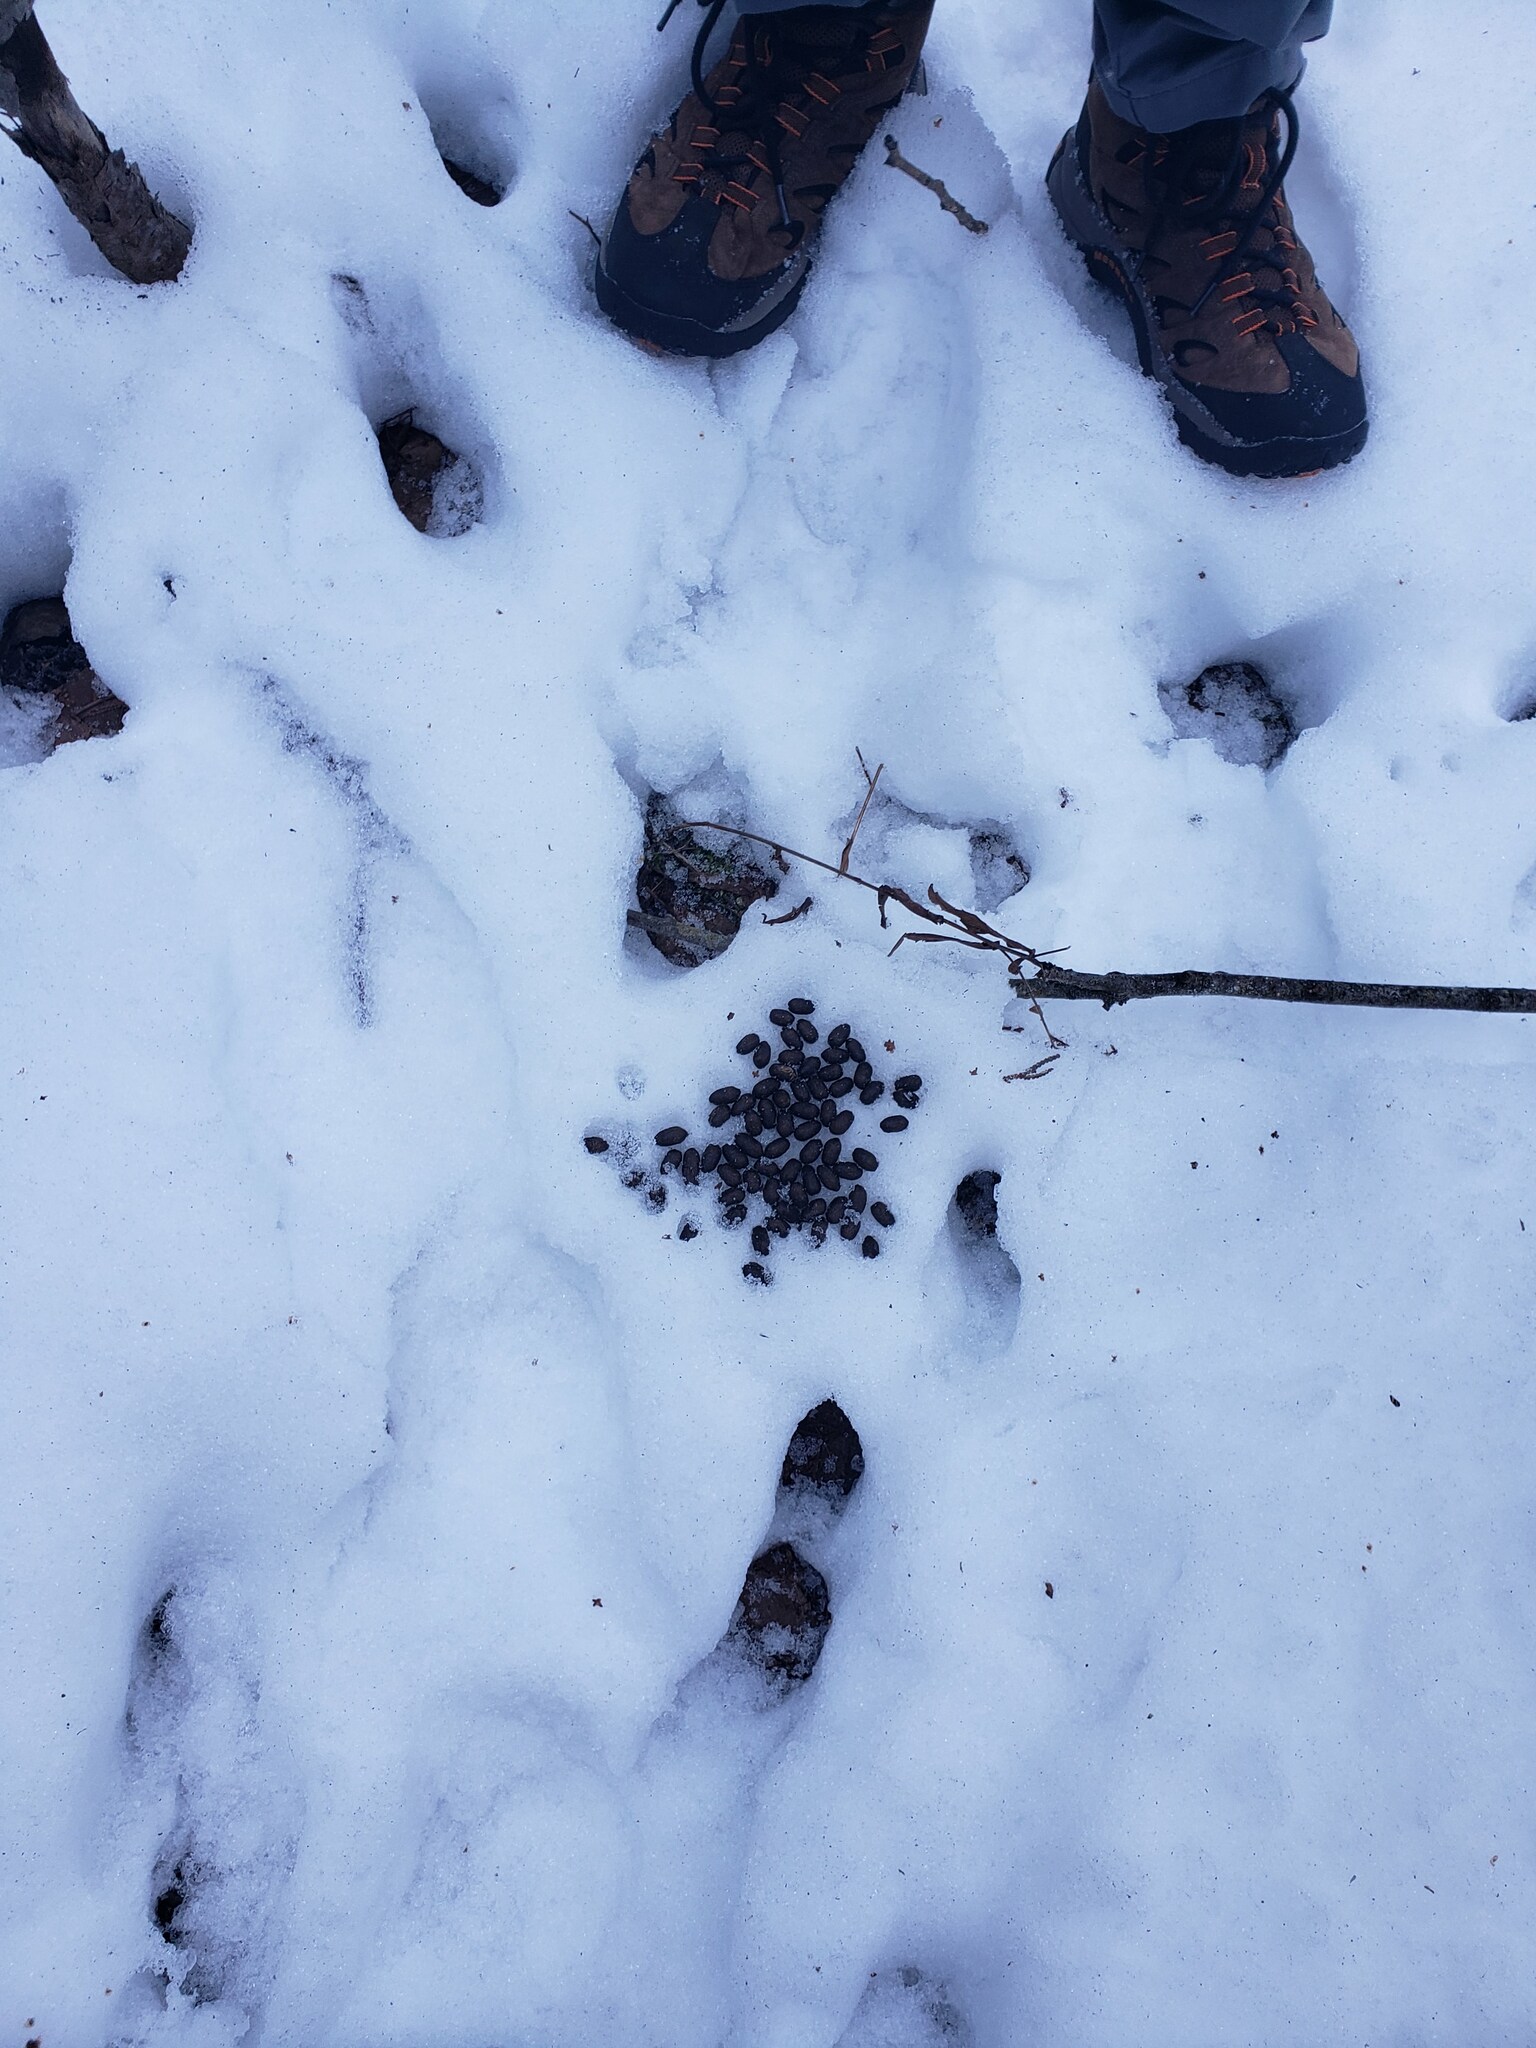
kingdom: Animalia
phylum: Chordata
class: Mammalia
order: Artiodactyla
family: Cervidae
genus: Odocoileus
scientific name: Odocoileus virginianus
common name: White-tailed deer
